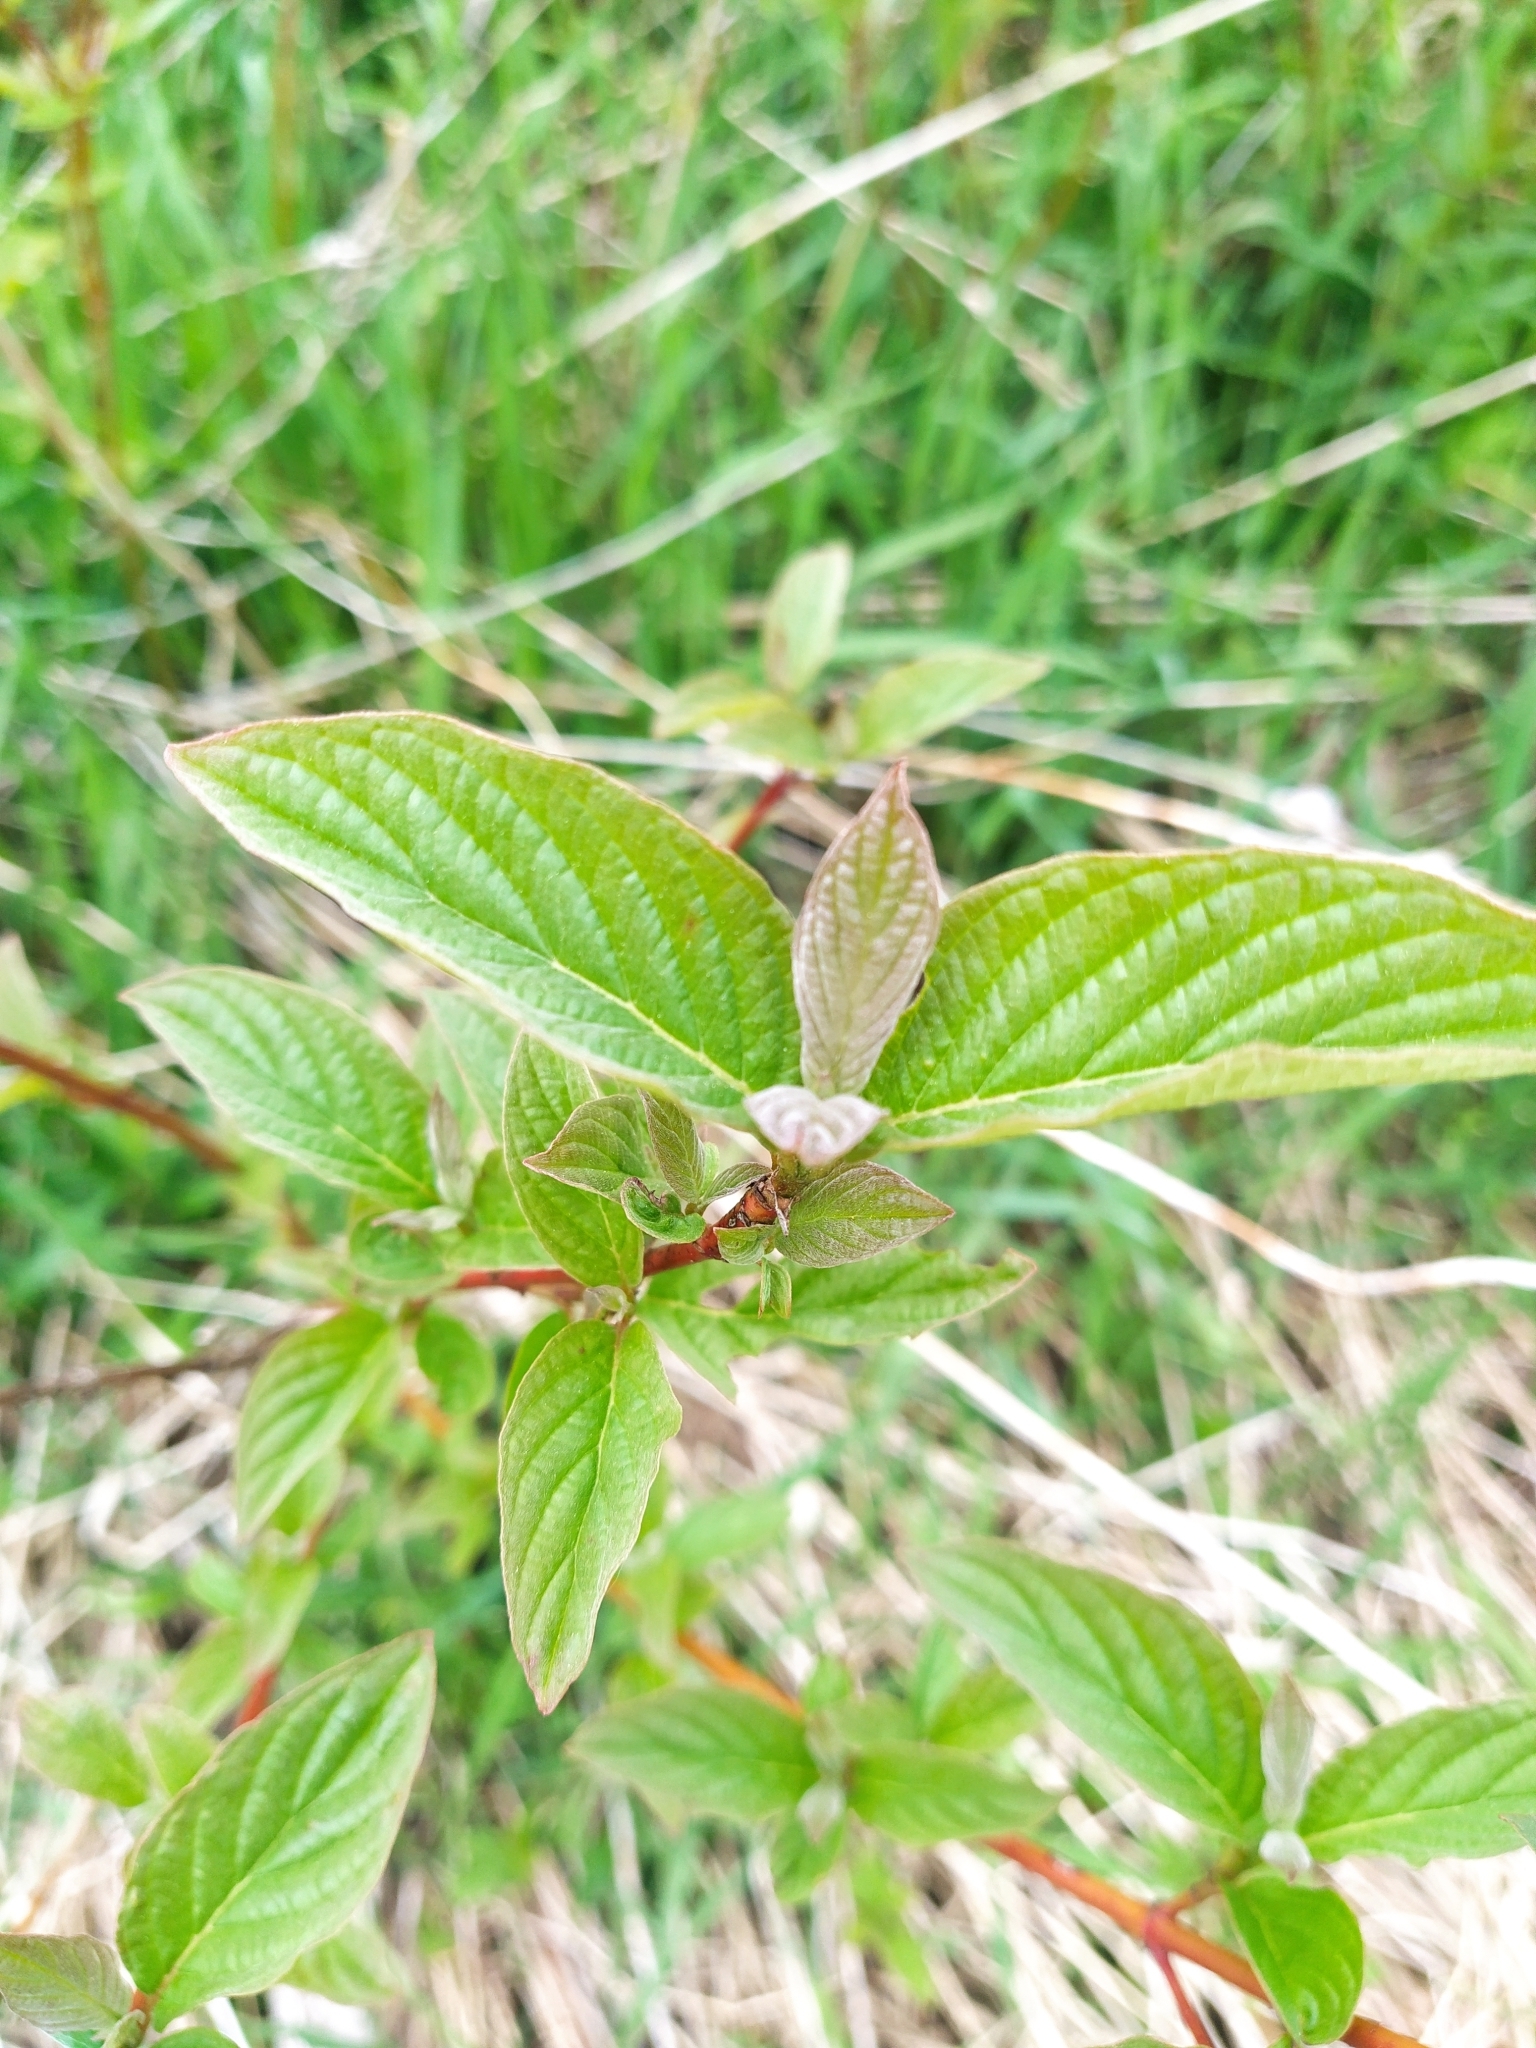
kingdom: Plantae
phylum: Tracheophyta
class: Magnoliopsida
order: Cornales
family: Cornaceae
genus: Cornus
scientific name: Cornus sericea
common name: Red-osier dogwood
